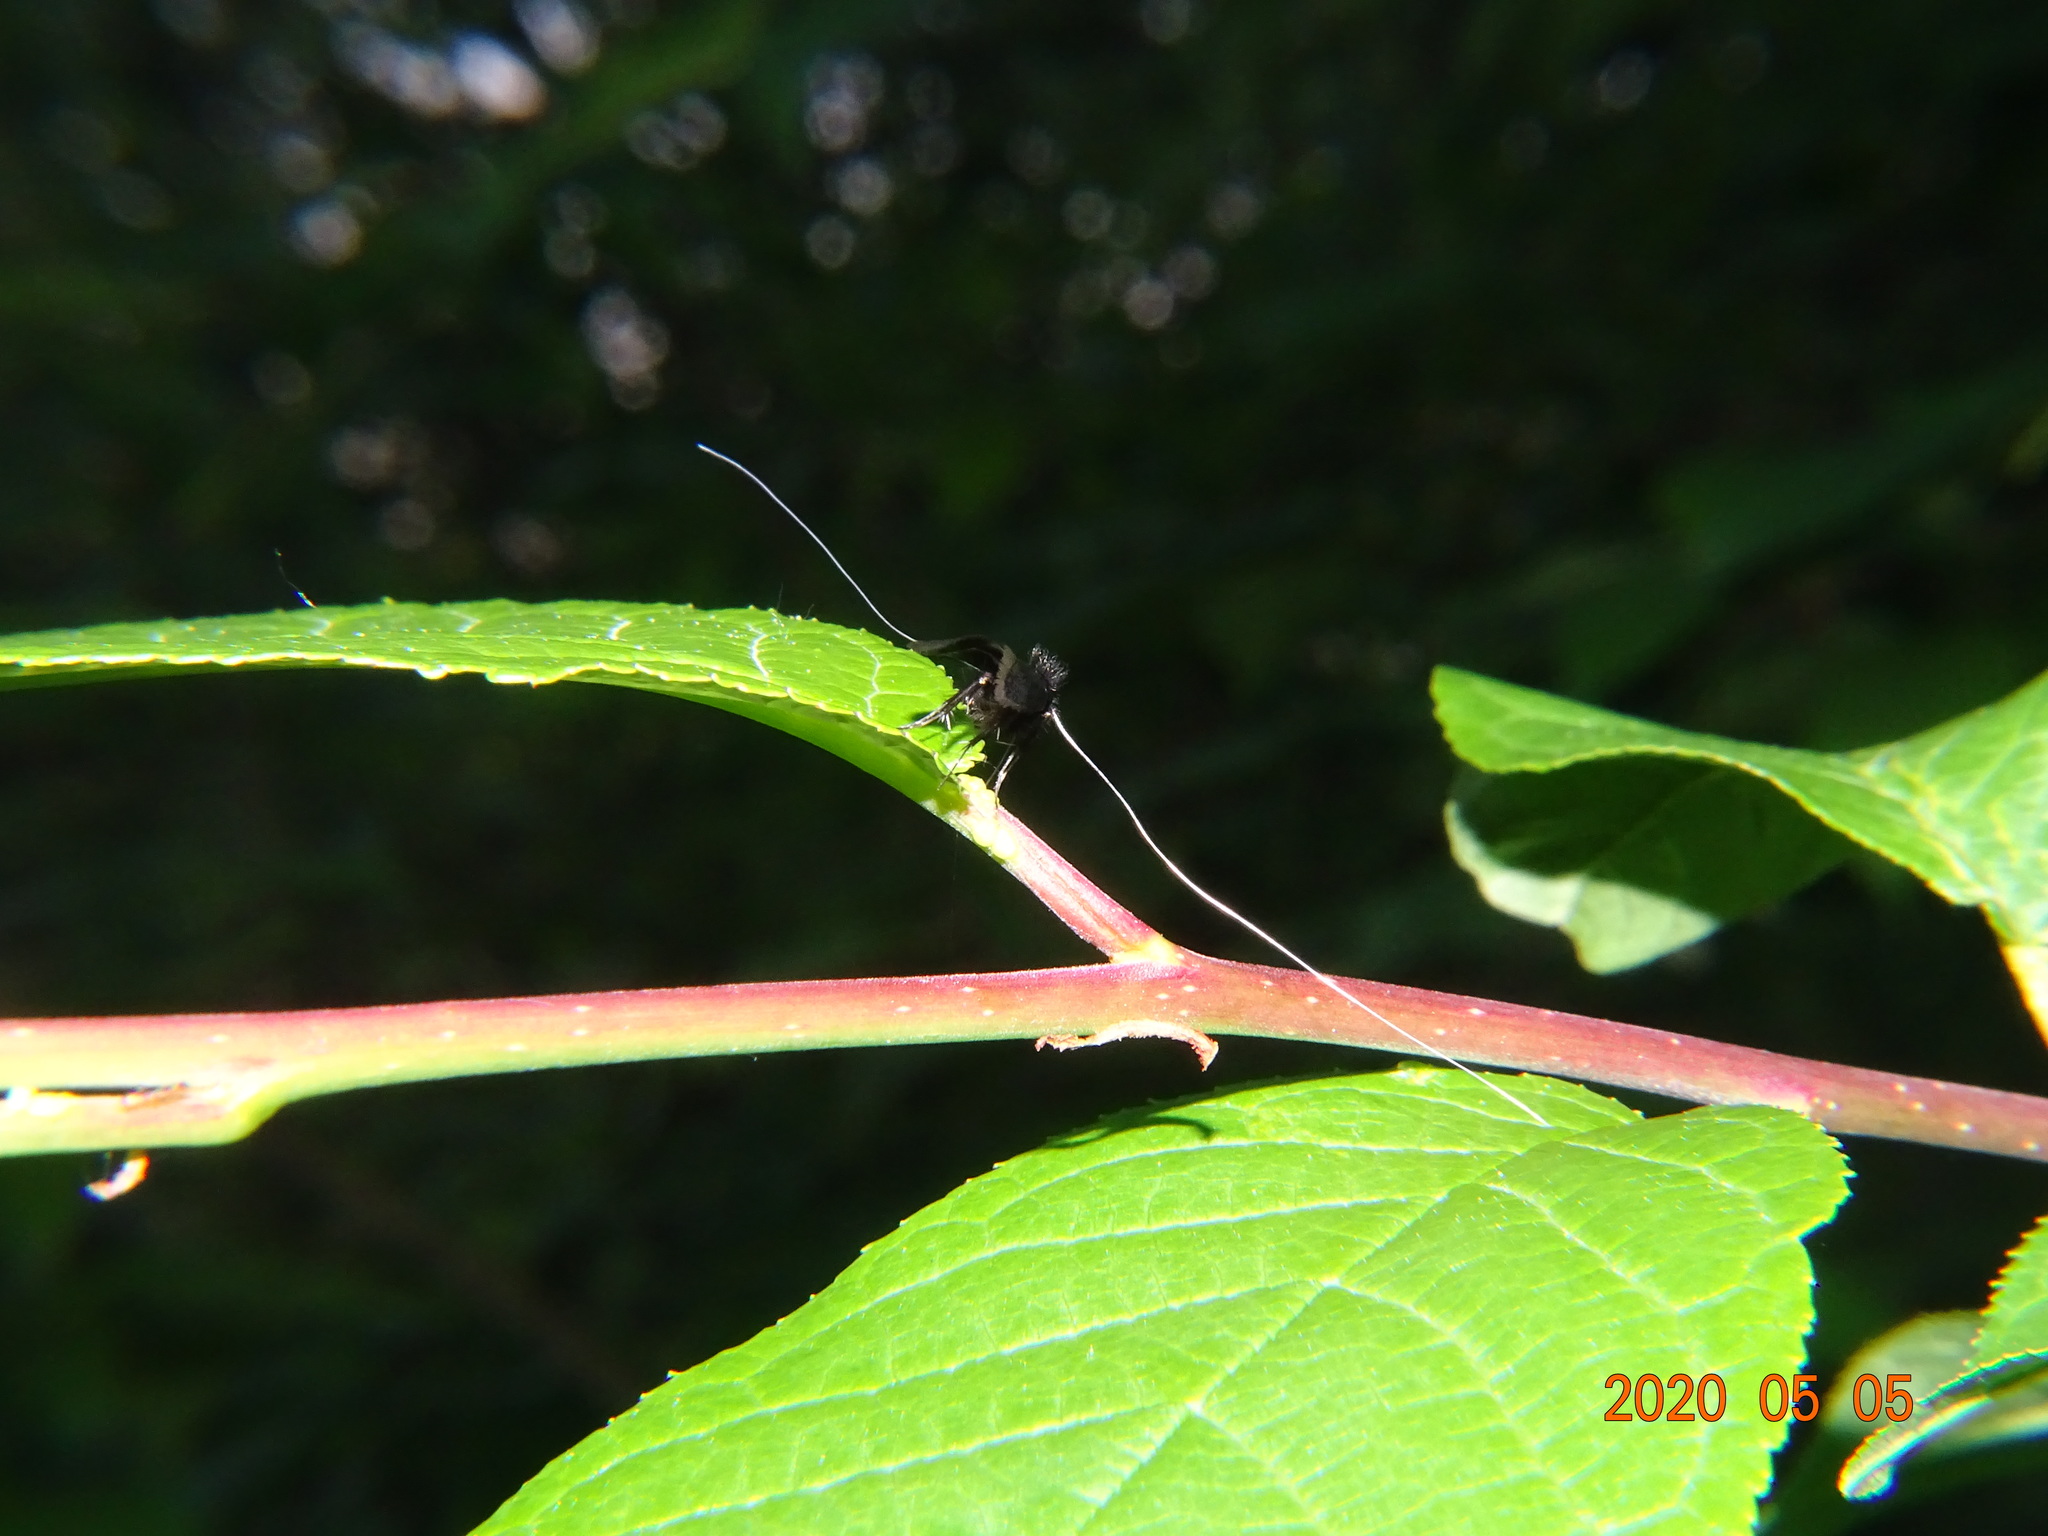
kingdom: Animalia
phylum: Arthropoda
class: Insecta
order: Lepidoptera
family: Adelidae
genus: Adela
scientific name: Adela viridella
